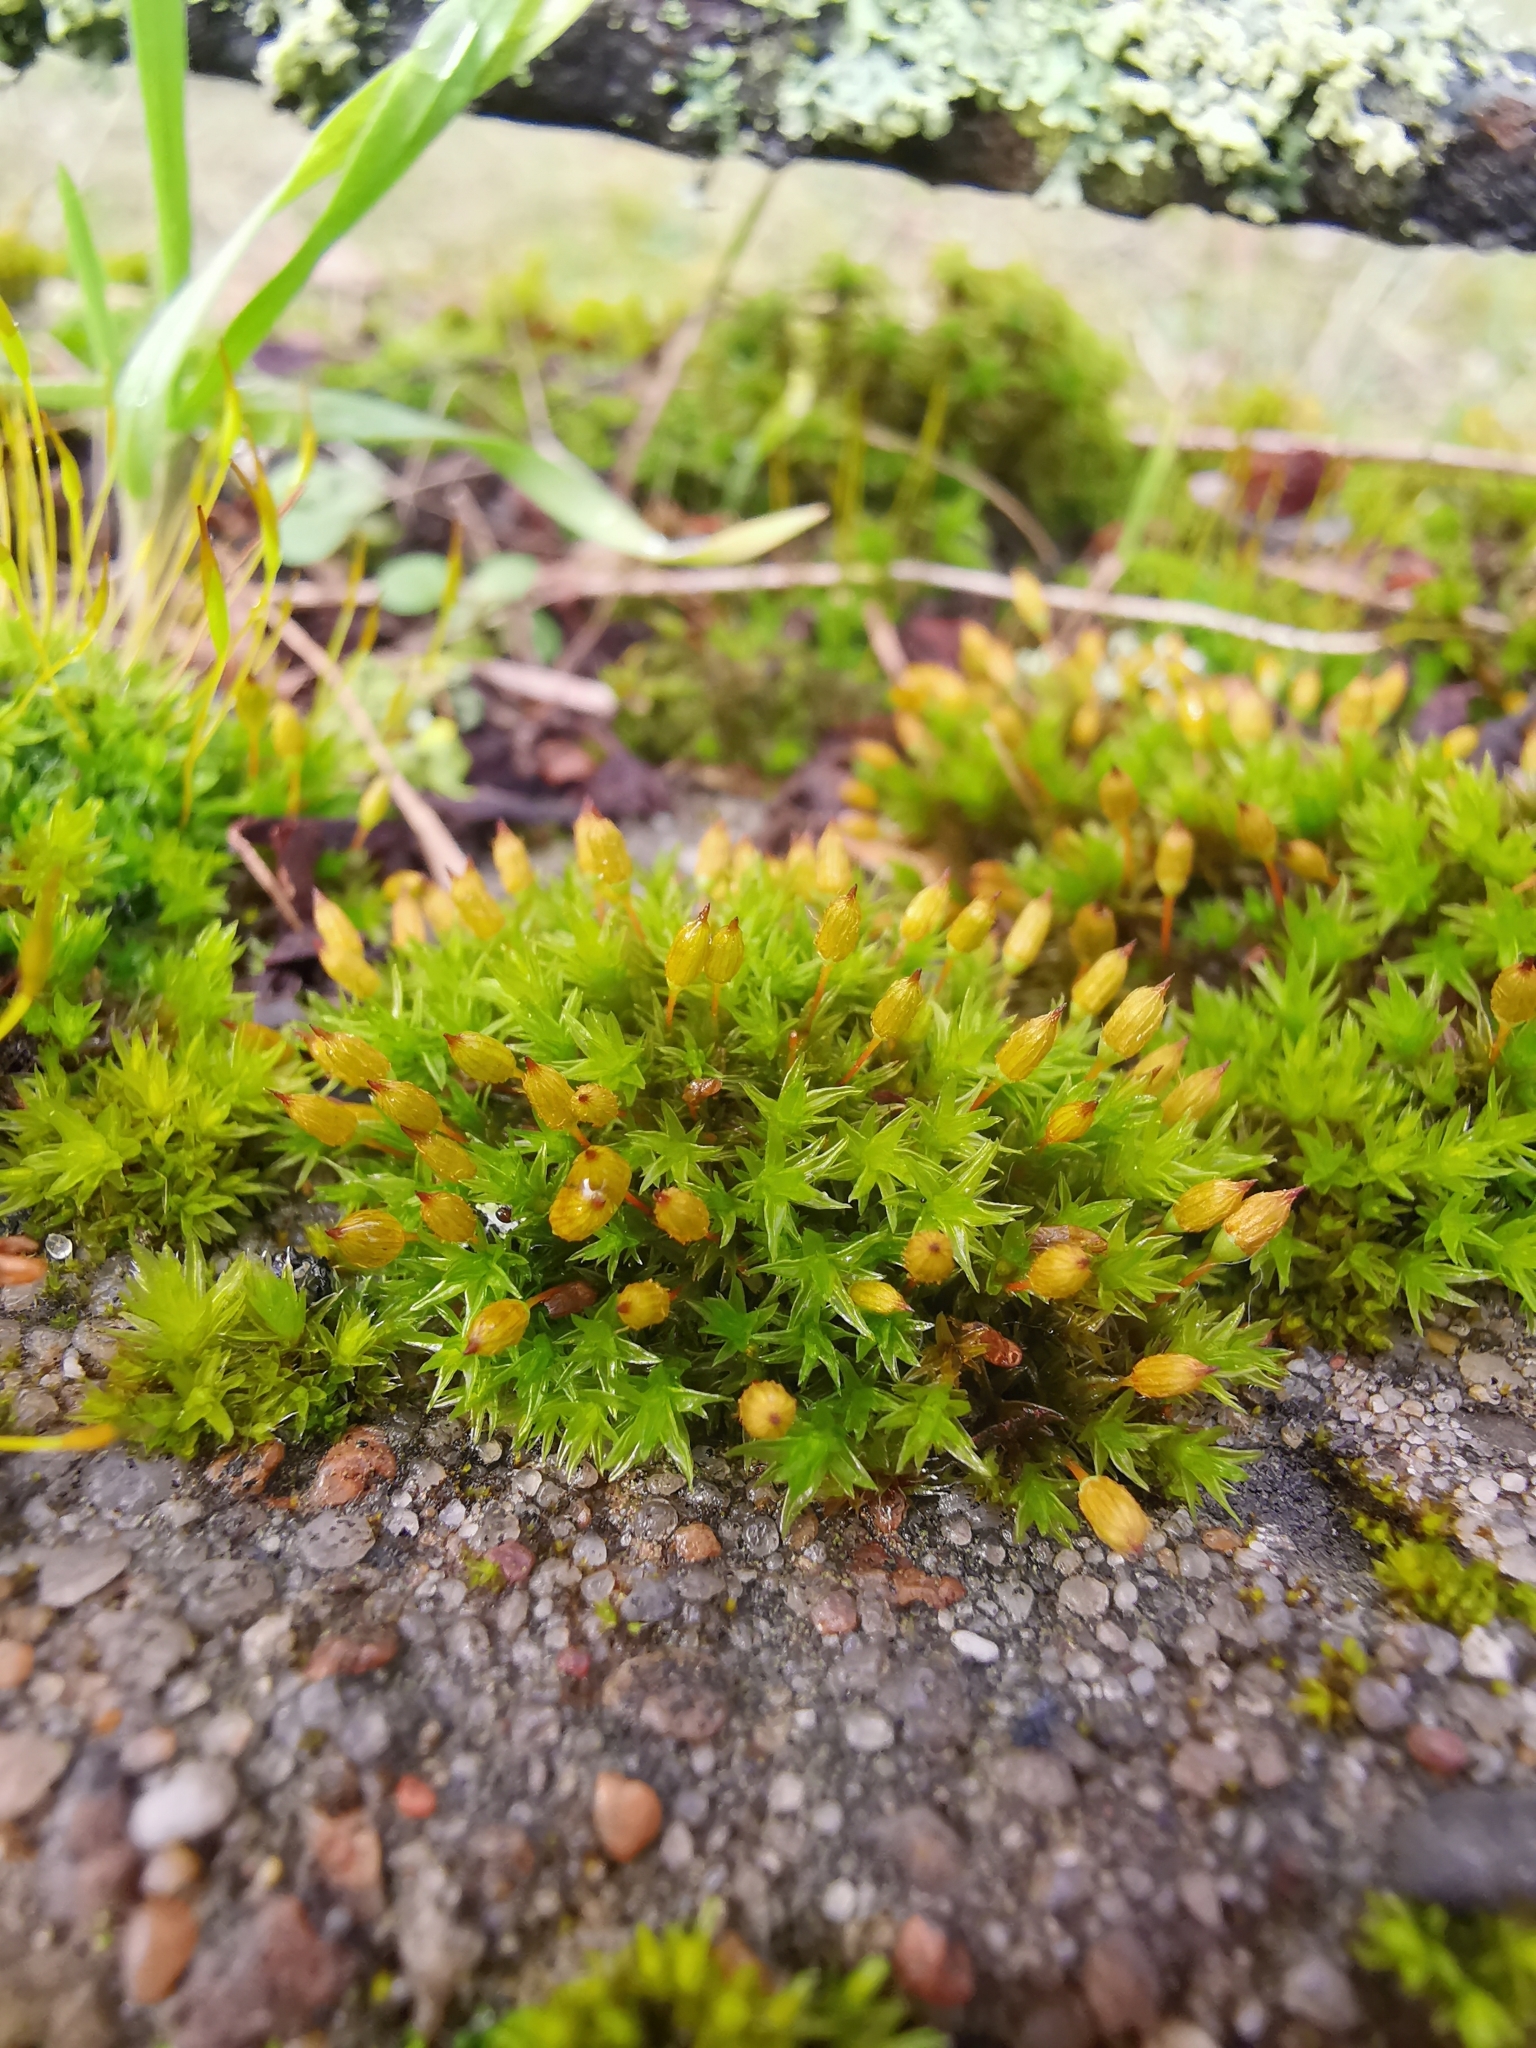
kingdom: Plantae
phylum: Bryophyta
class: Bryopsida
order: Orthotrichales
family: Orthotrichaceae
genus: Orthotrichum
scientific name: Orthotrichum anomalum
